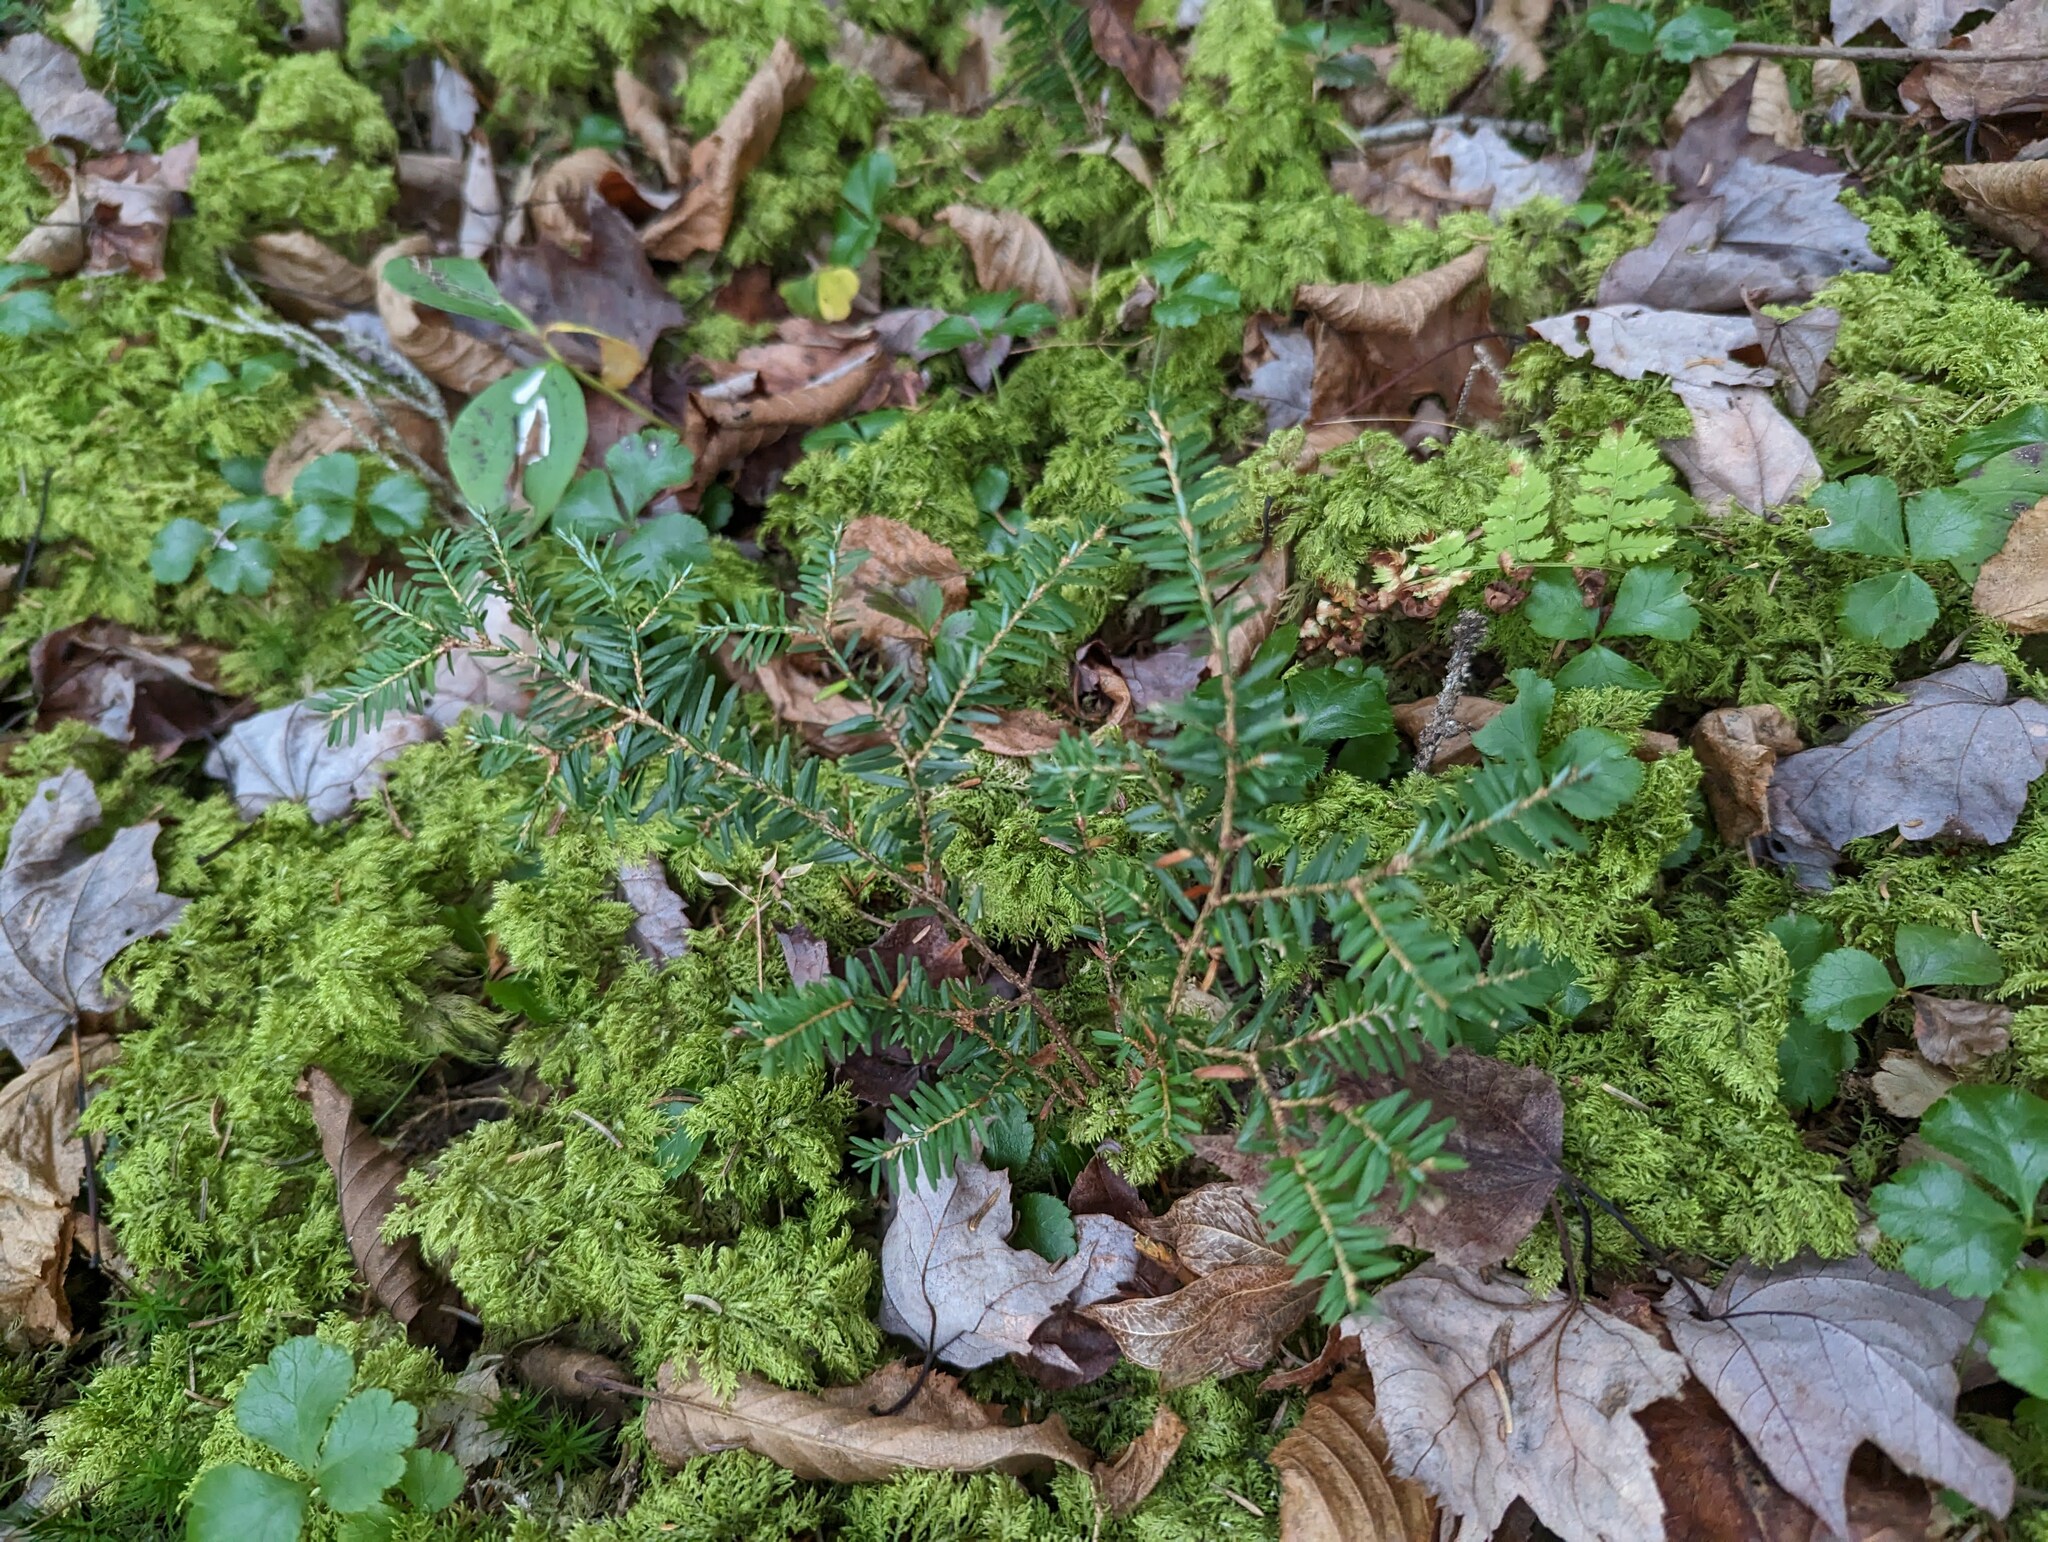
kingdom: Plantae
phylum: Tracheophyta
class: Pinopsida
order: Pinales
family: Pinaceae
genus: Tsuga
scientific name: Tsuga canadensis
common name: Eastern hemlock
